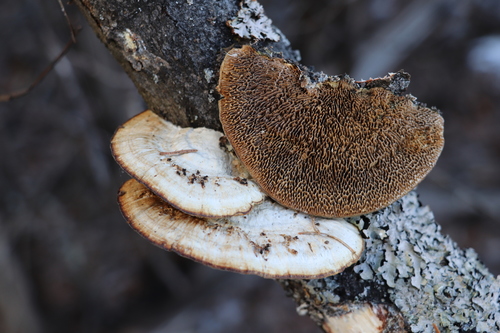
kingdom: Fungi
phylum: Basidiomycota
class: Agaricomycetes
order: Polyporales
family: Polyporaceae
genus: Daedaleopsis
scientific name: Daedaleopsis confragosa
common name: Blushing bracket
